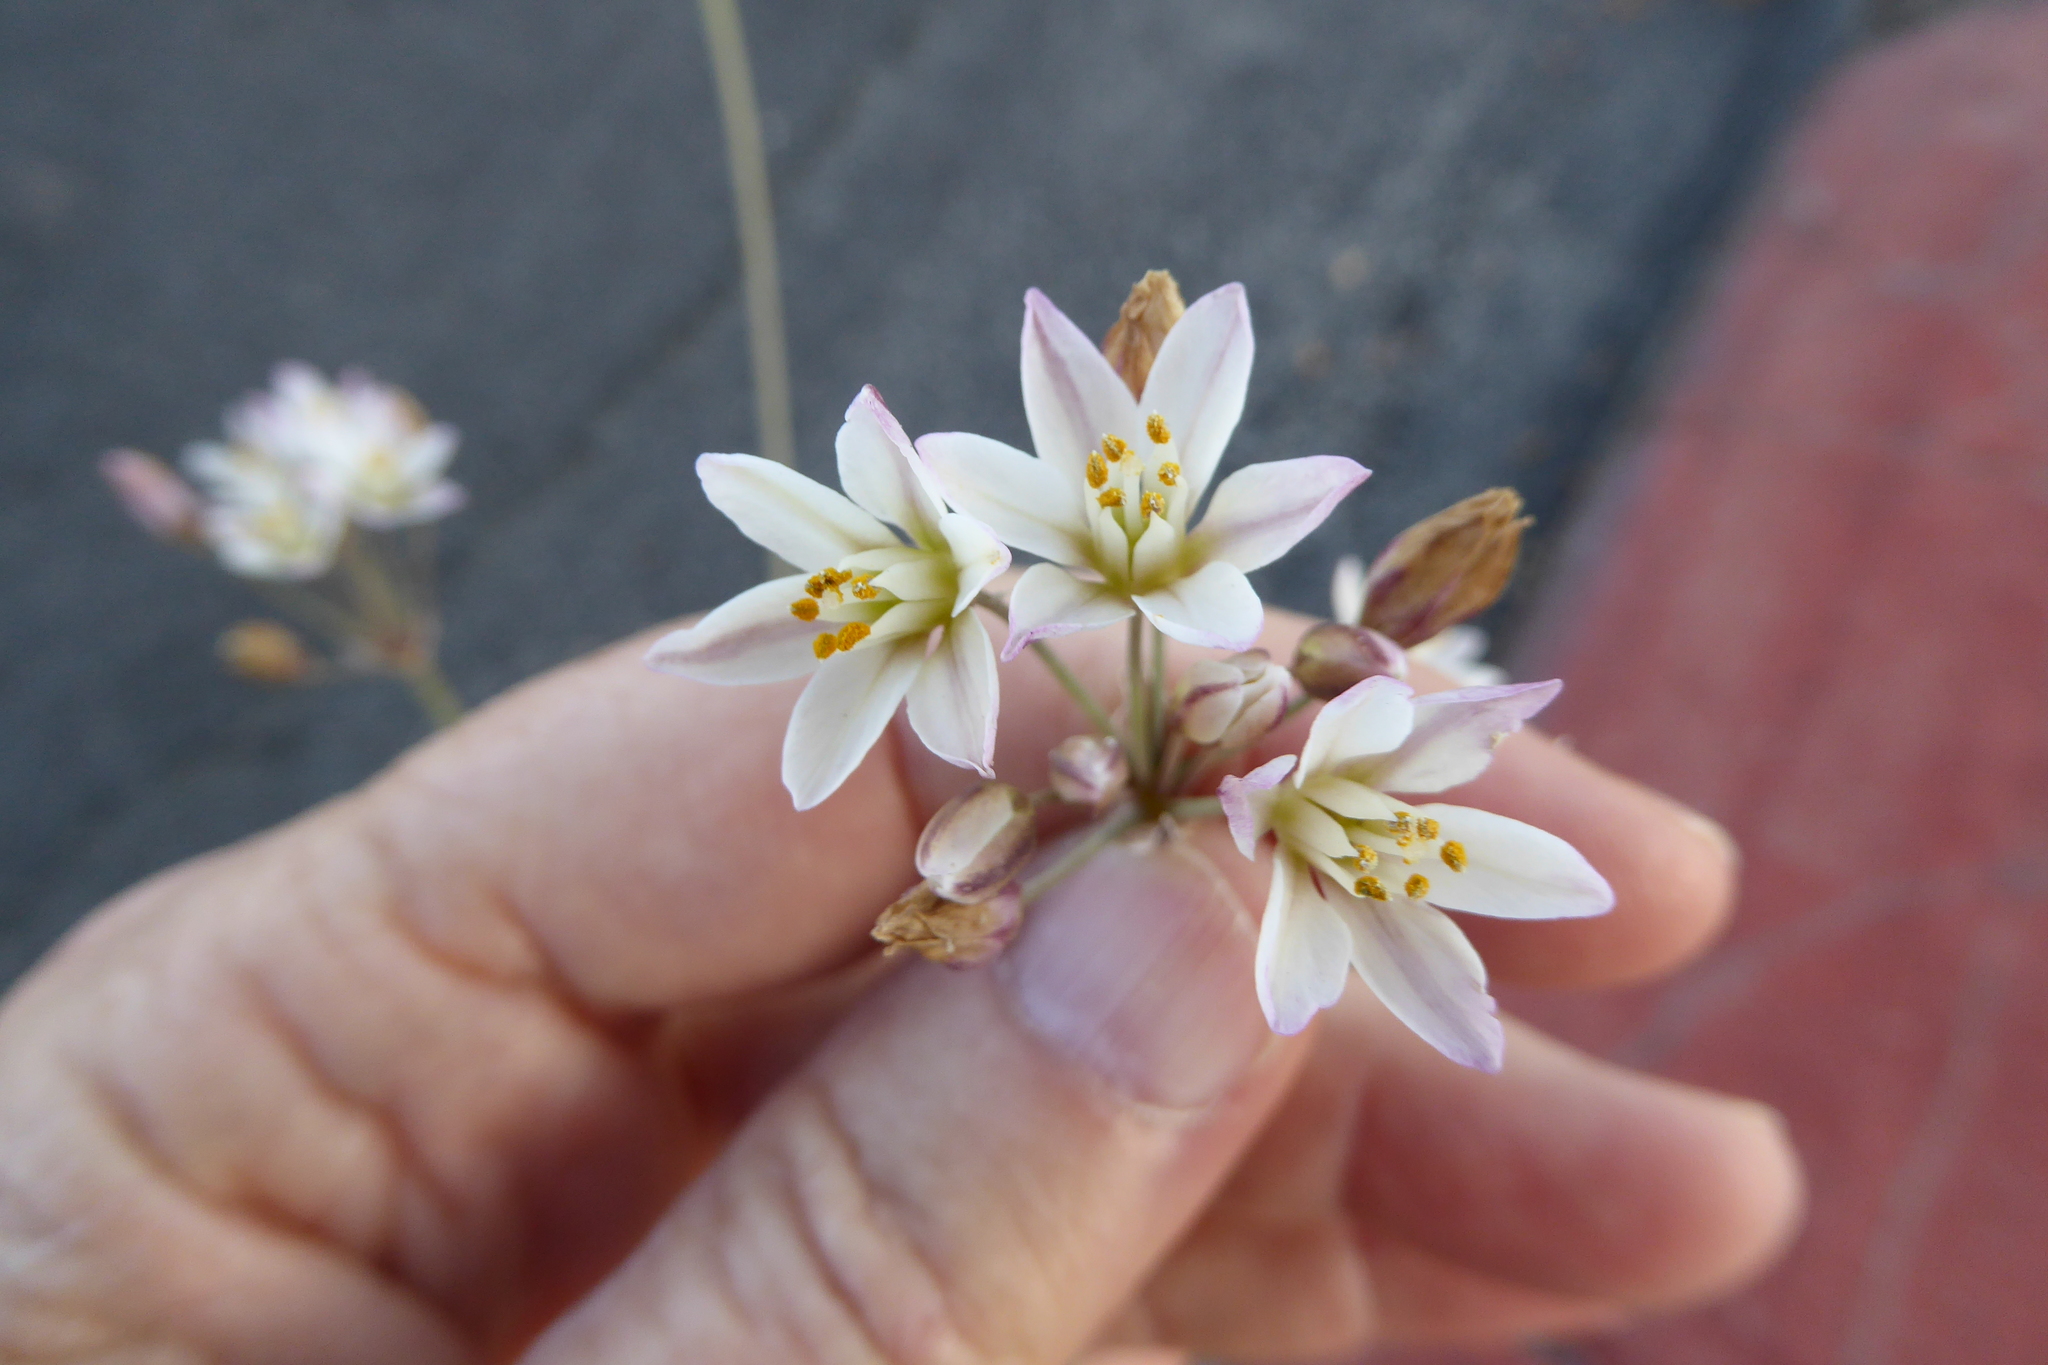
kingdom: Plantae
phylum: Tracheophyta
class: Liliopsida
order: Asparagales
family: Amaryllidaceae
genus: Nothoscordum
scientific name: Nothoscordum gracile
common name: Slender false garlic
